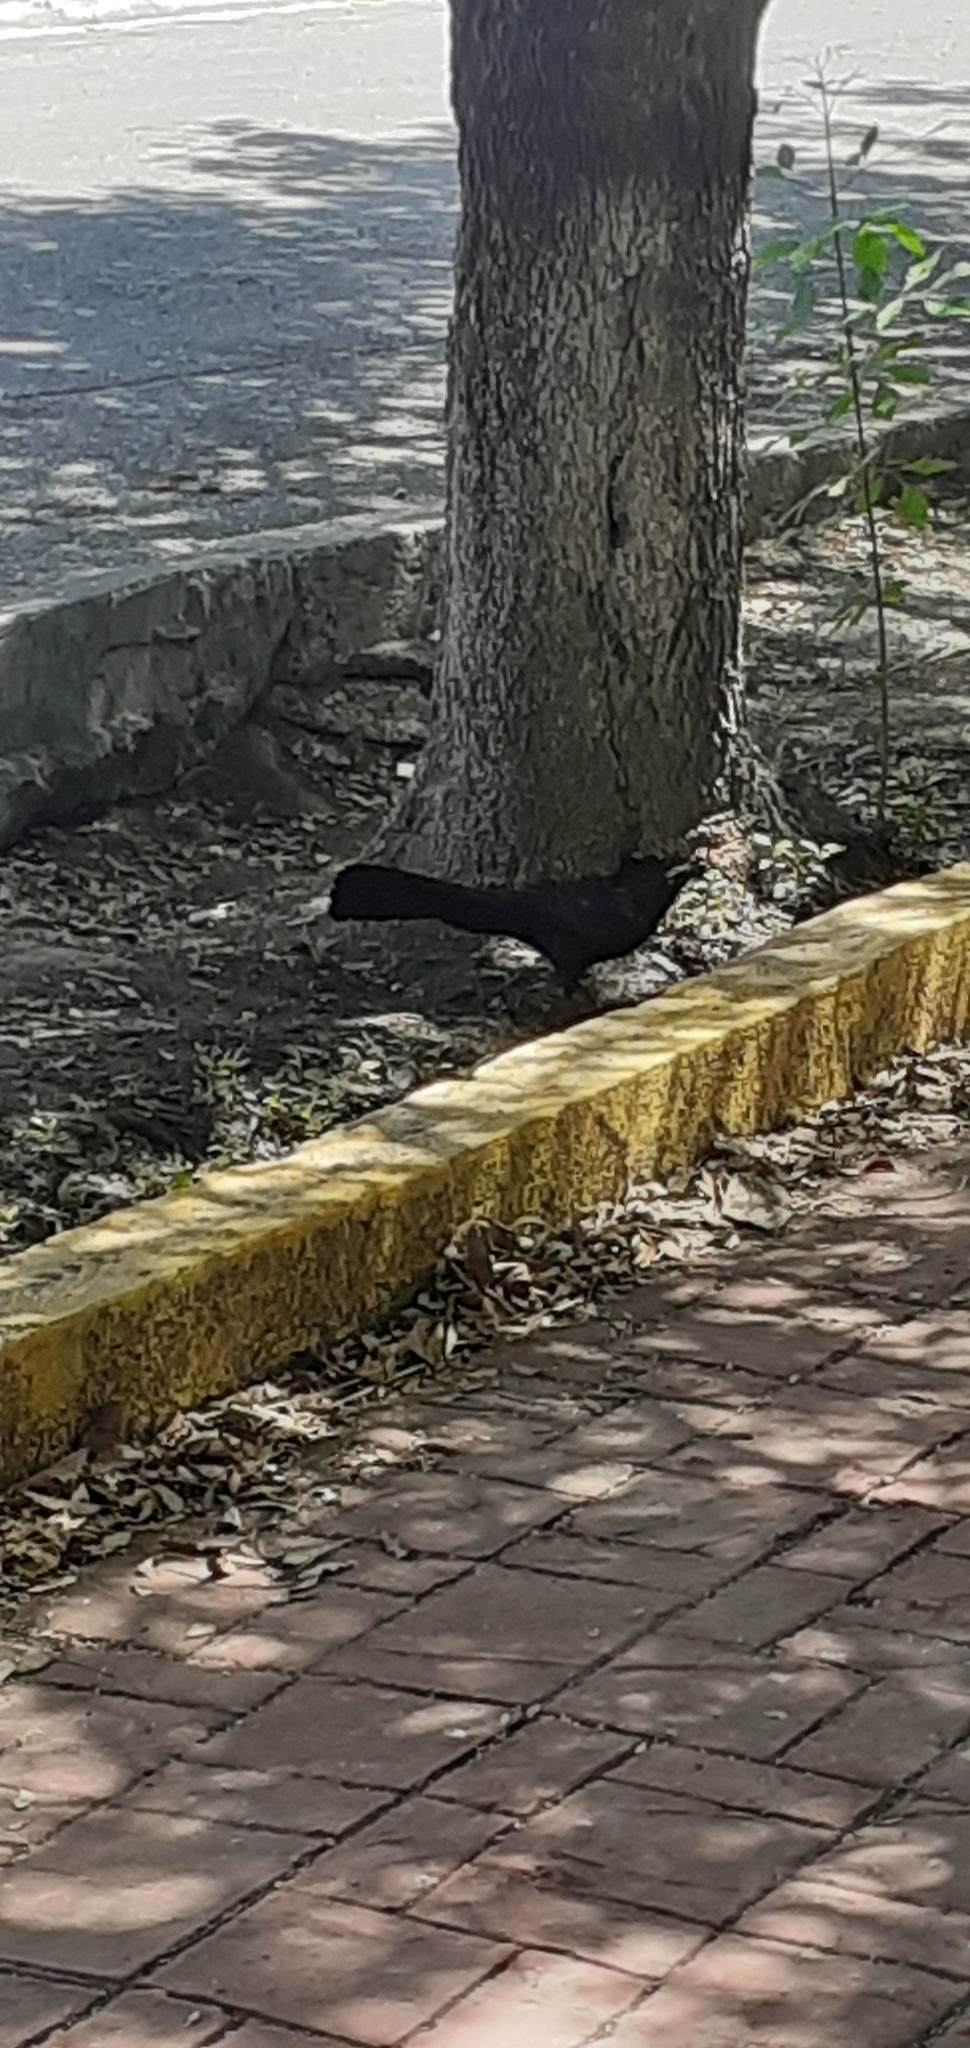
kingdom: Animalia
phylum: Chordata
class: Aves
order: Passeriformes
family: Icteridae
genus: Quiscalus
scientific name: Quiscalus mexicanus
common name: Great-tailed grackle
